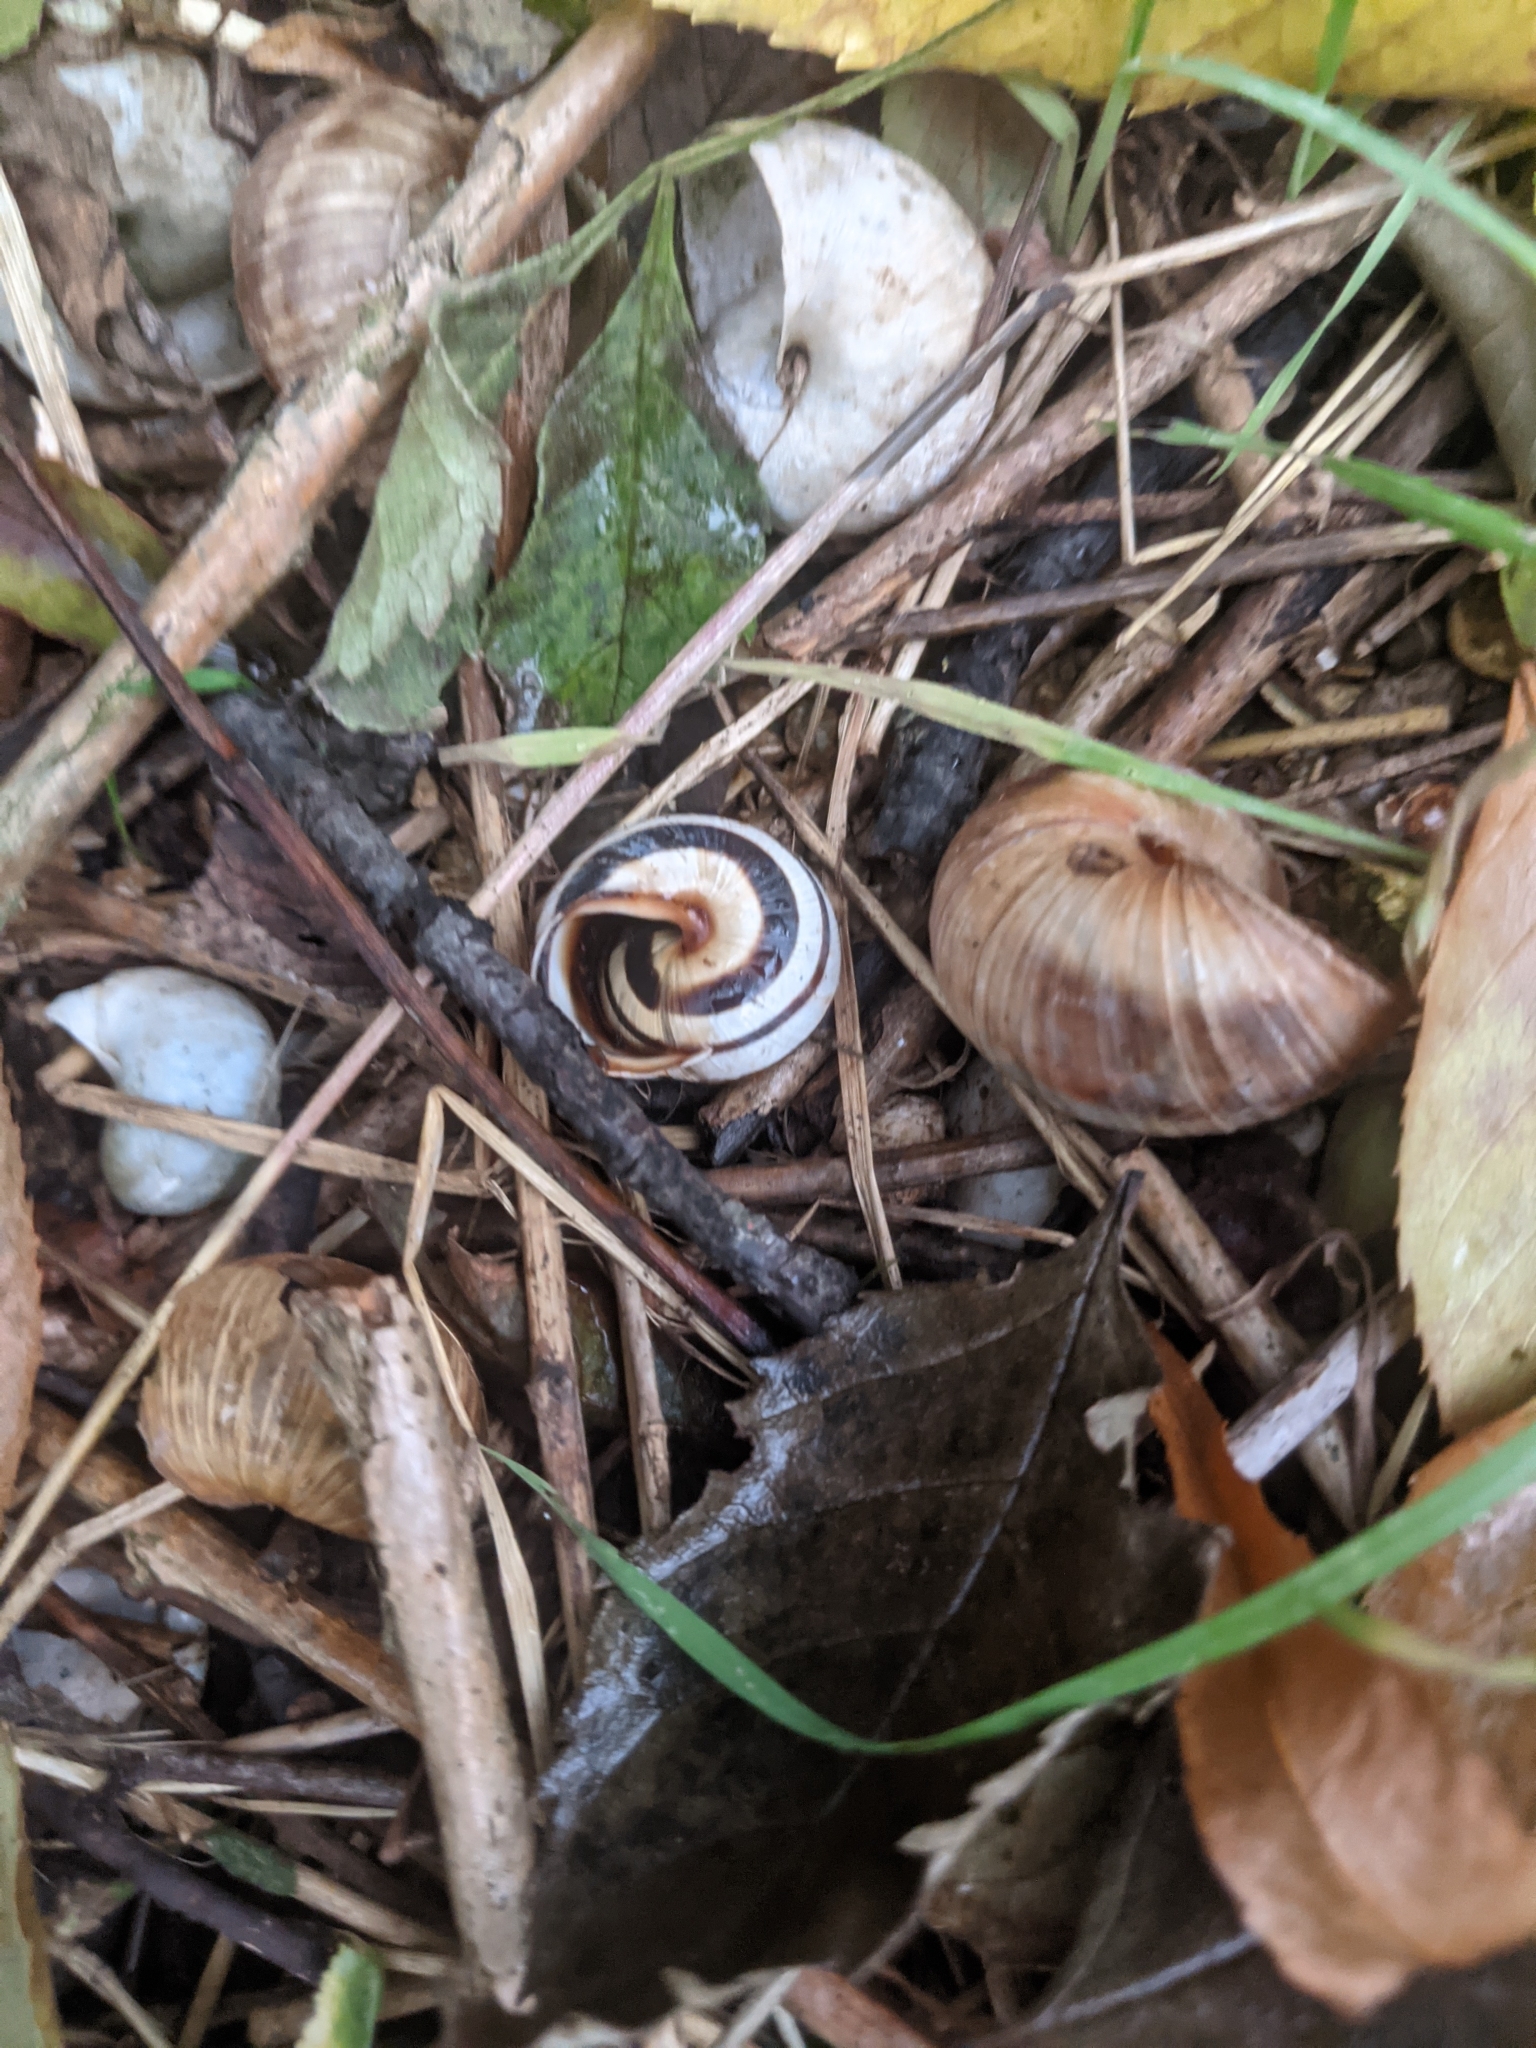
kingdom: Animalia
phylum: Mollusca
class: Gastropoda
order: Stylommatophora
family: Helicidae
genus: Caucasotachea
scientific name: Caucasotachea vindobonensis
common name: European helicid land snail
